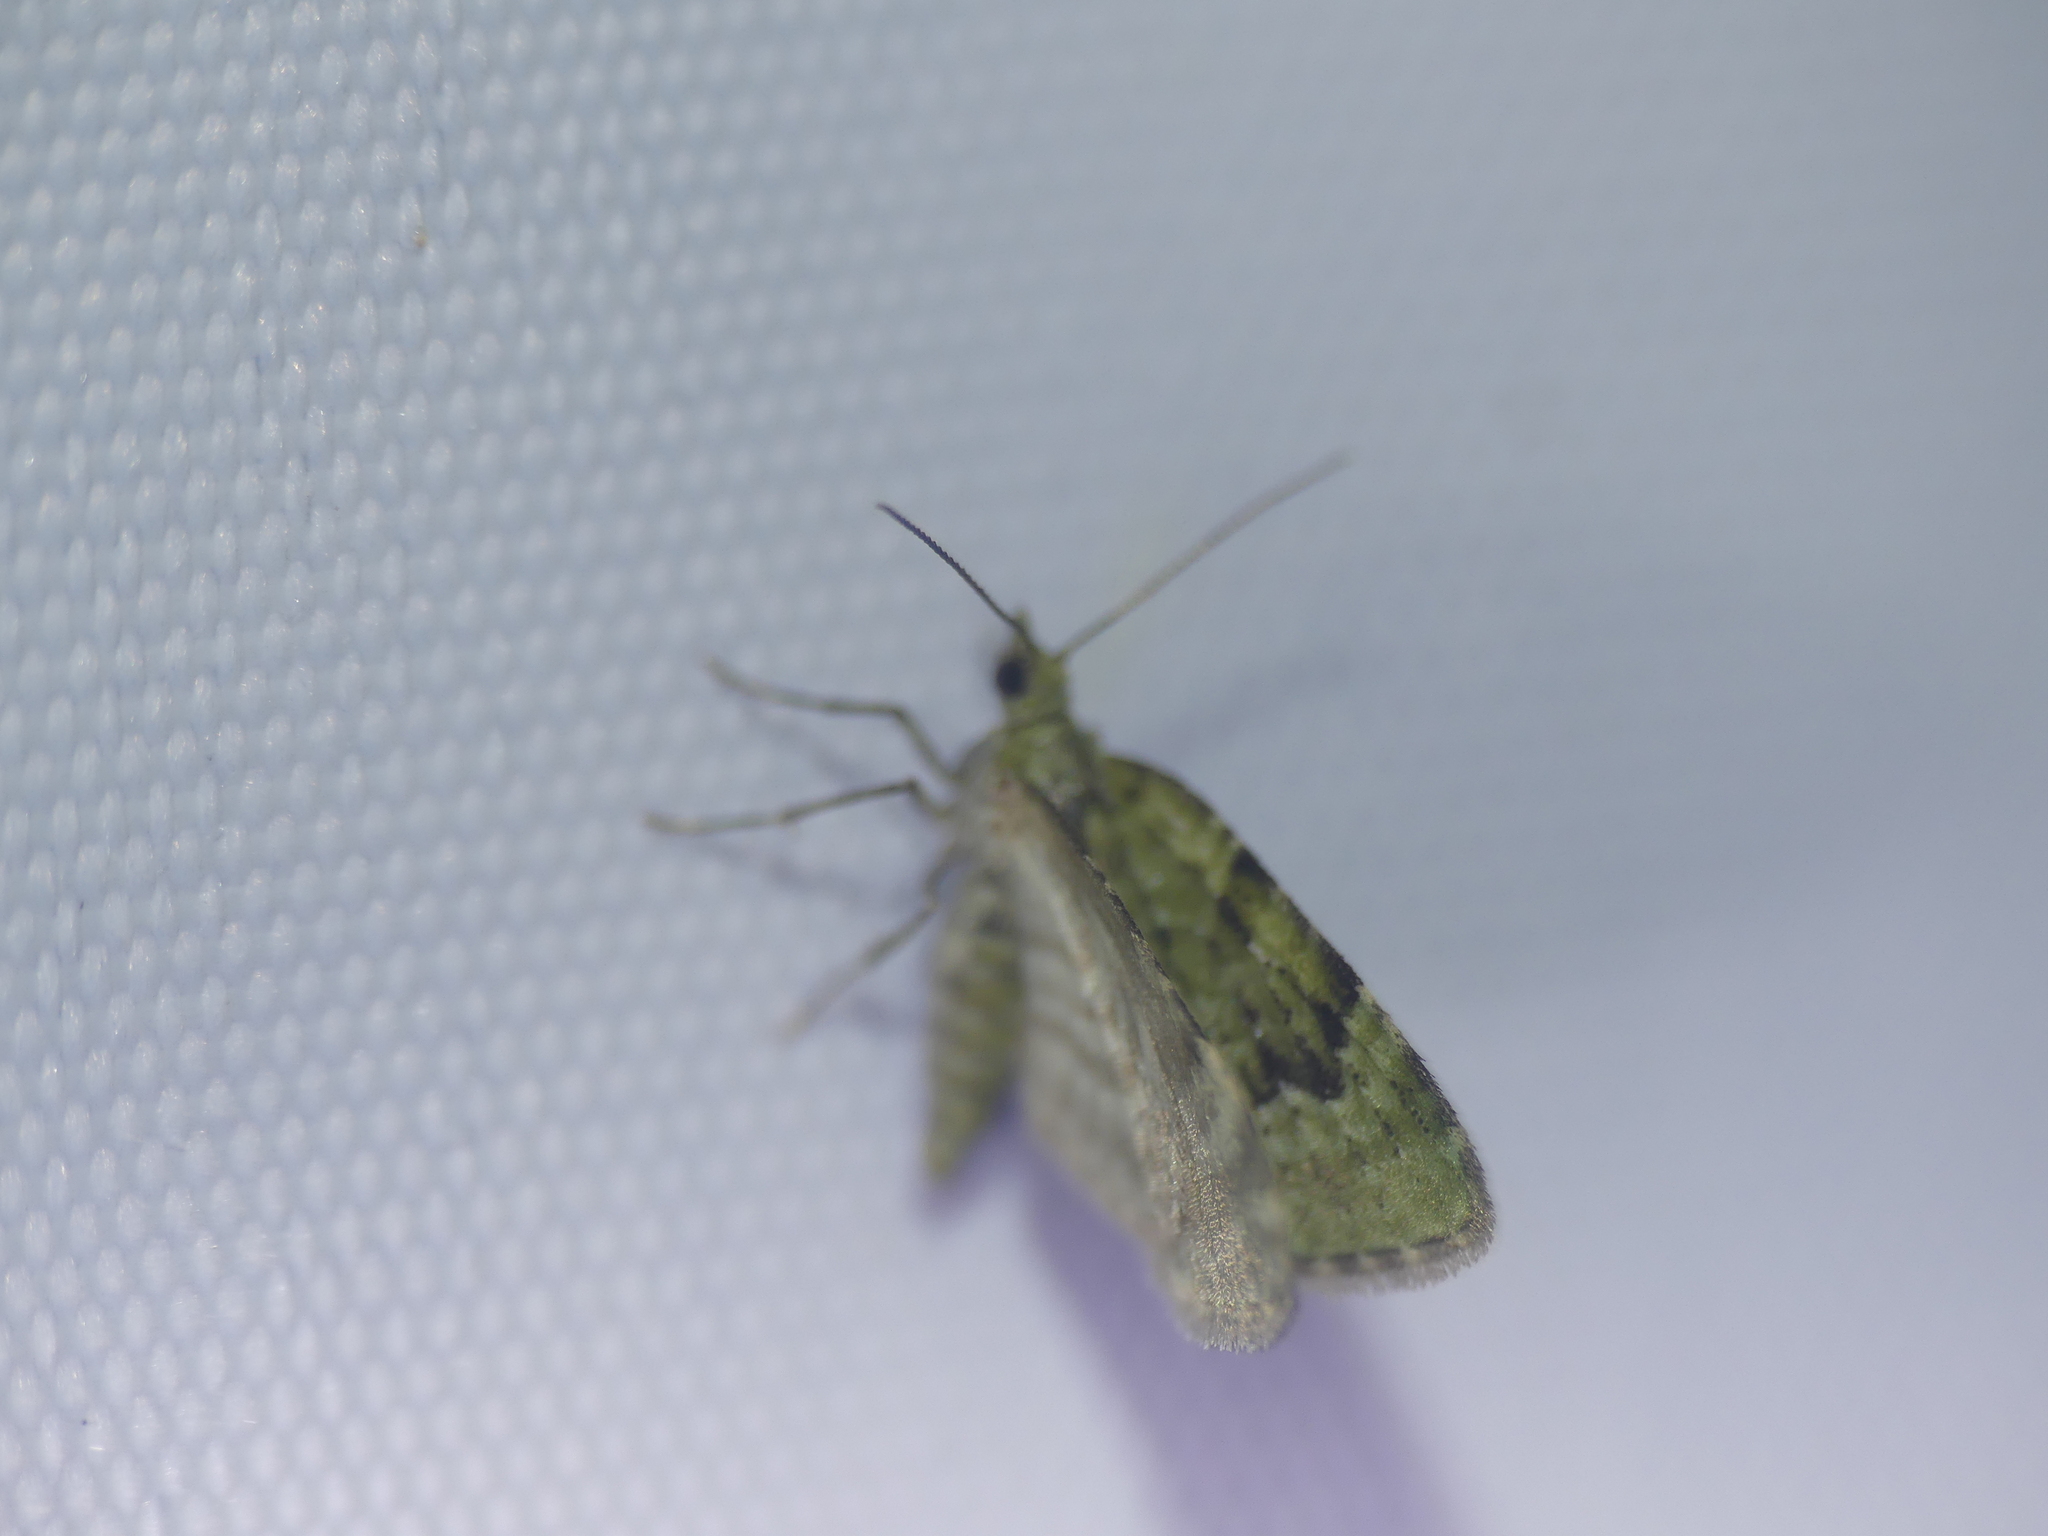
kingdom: Animalia
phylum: Arthropoda
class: Insecta
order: Lepidoptera
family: Geometridae
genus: Chloroclystis
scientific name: Chloroclystis v-ata
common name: V-pug
